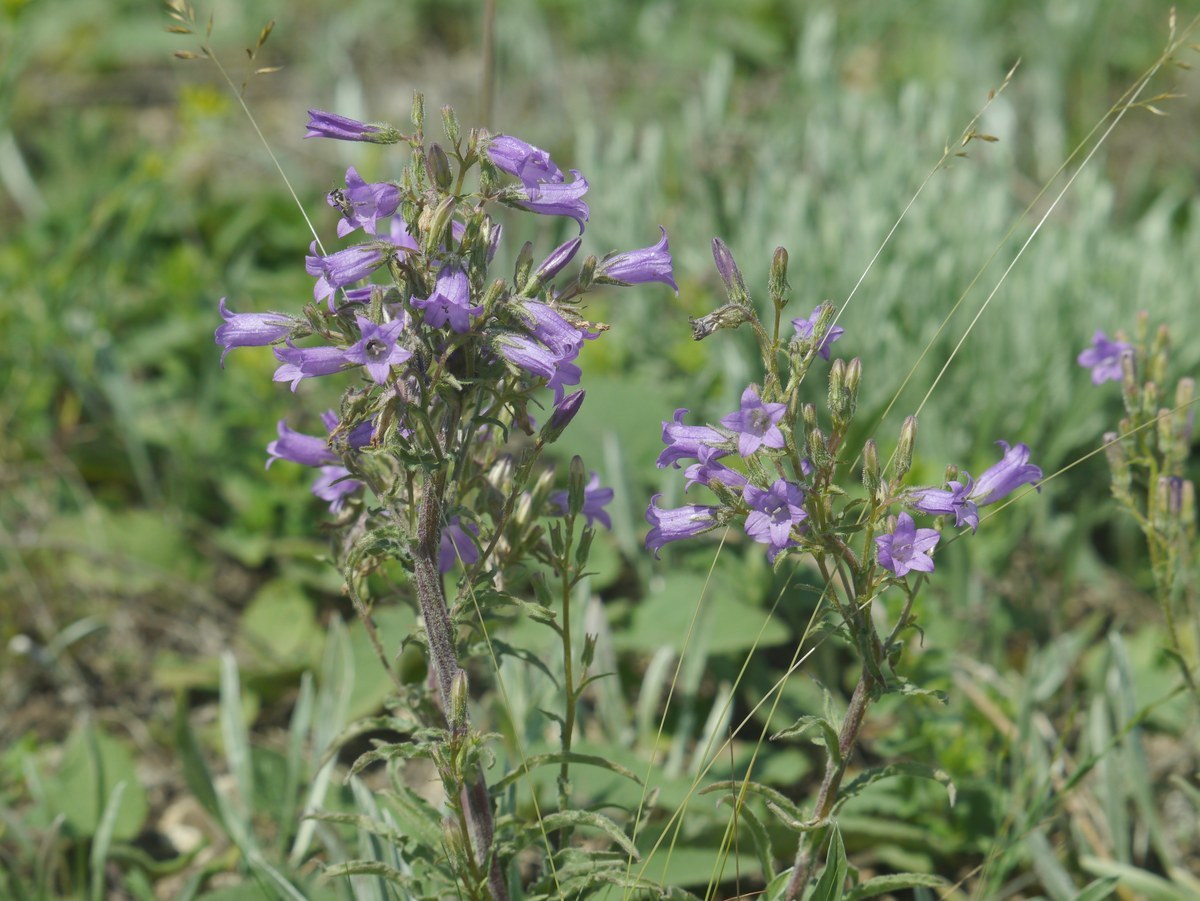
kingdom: Plantae
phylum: Tracheophyta
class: Magnoliopsida
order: Asterales
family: Campanulaceae
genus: Campanula
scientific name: Campanula sibirica
